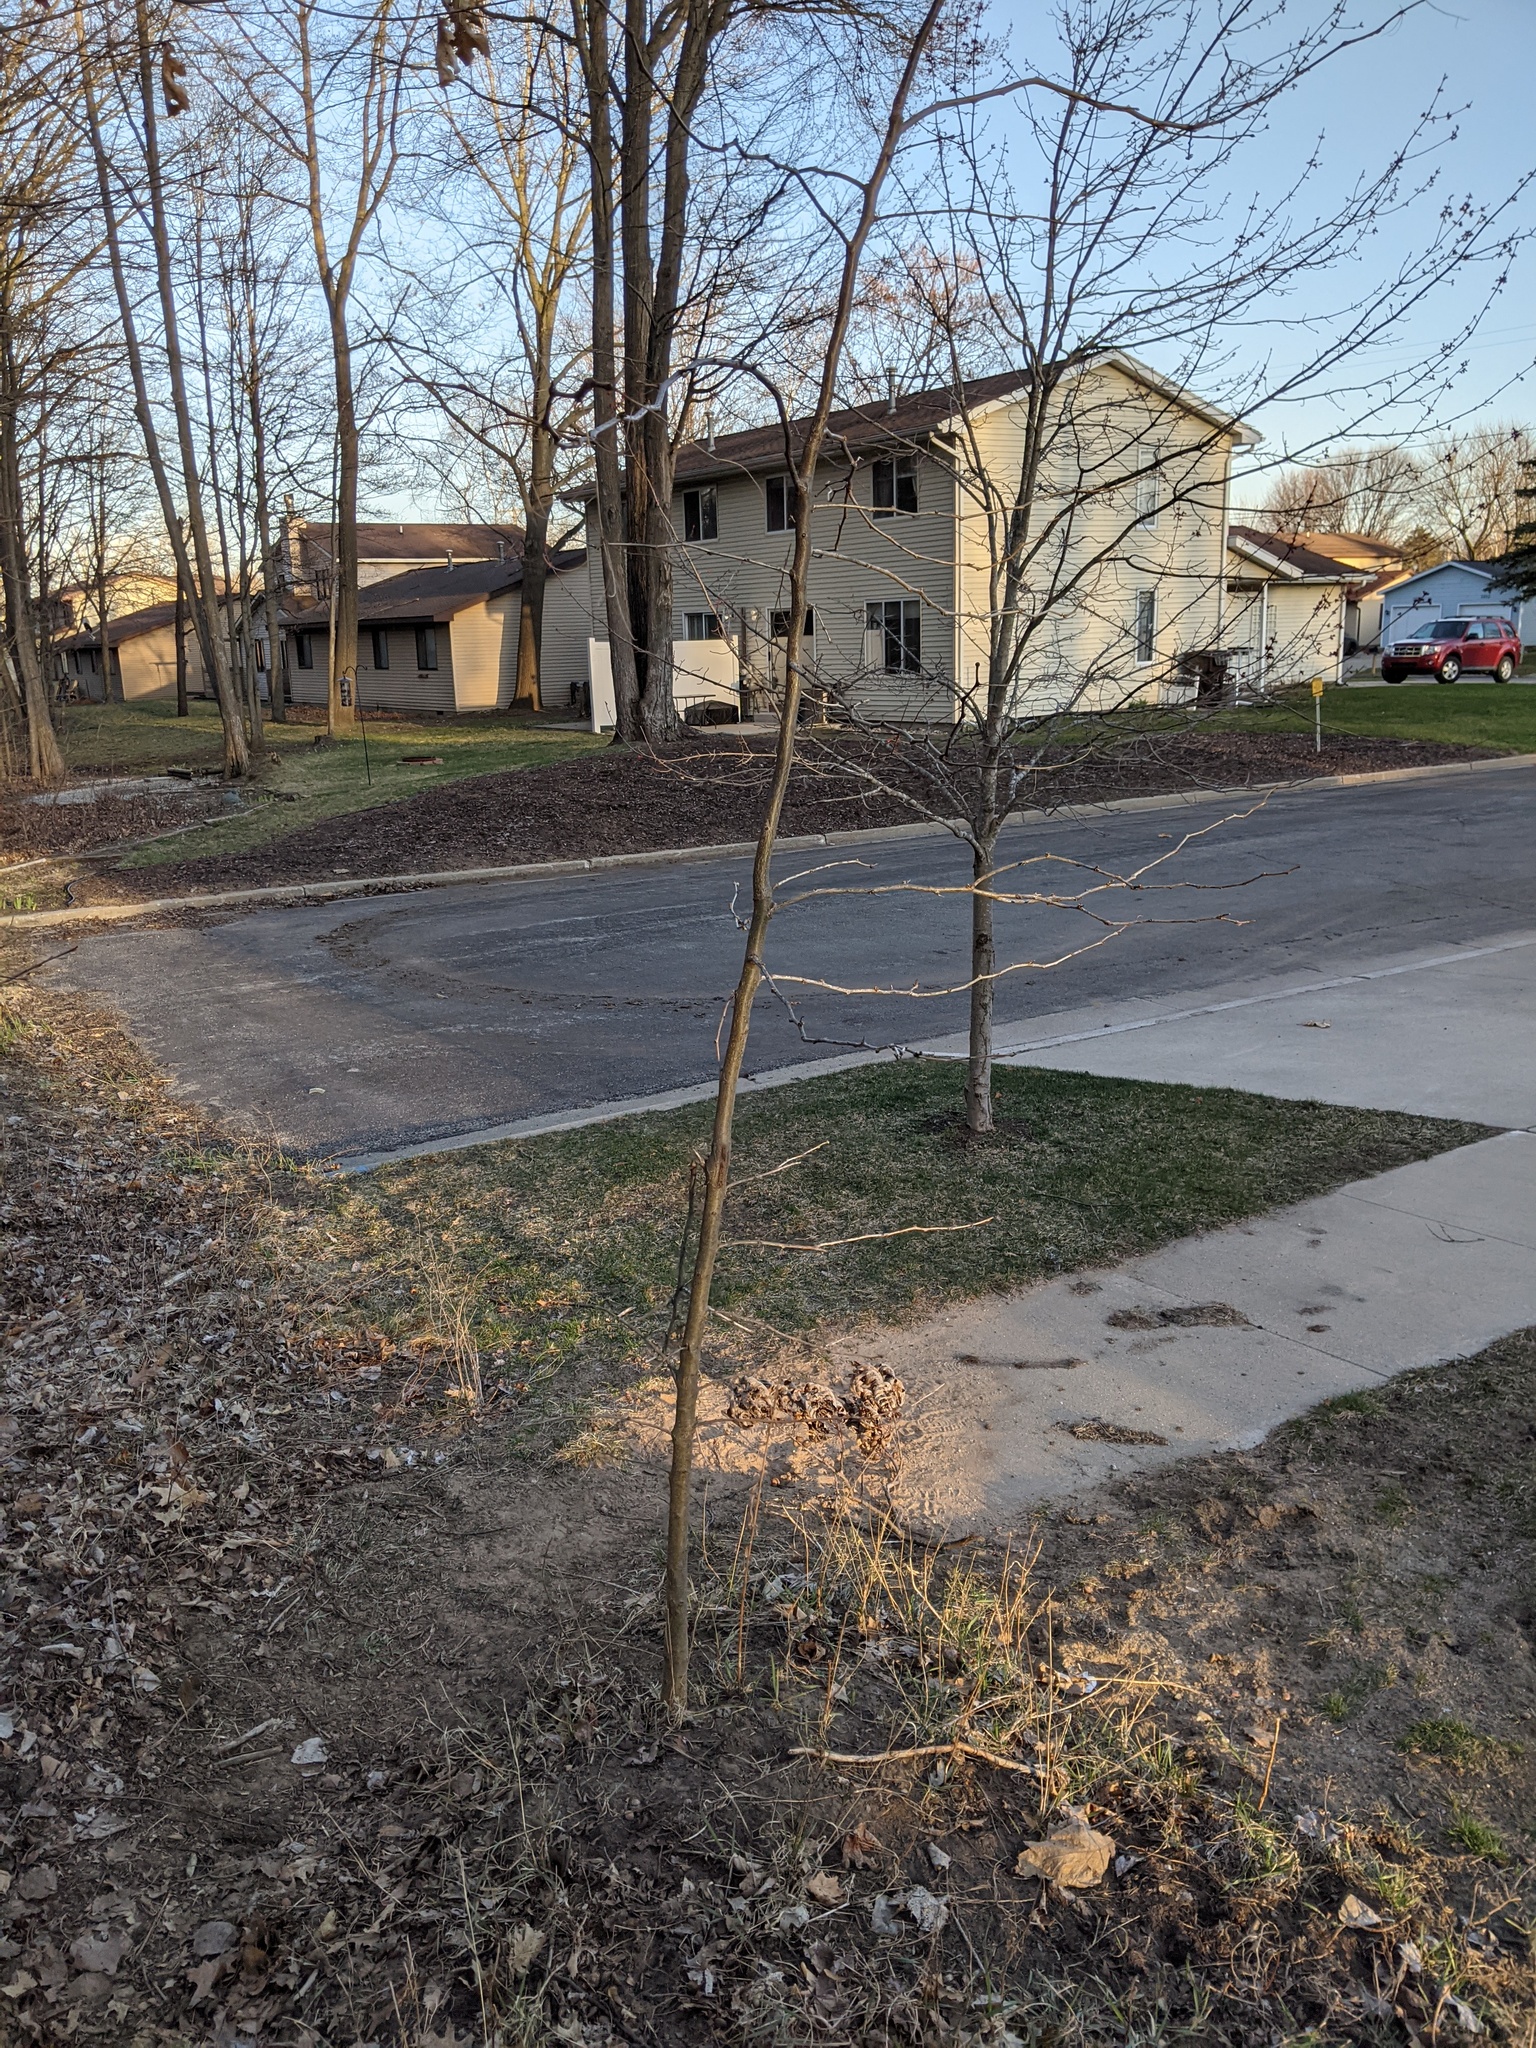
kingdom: Plantae
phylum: Tracheophyta
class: Magnoliopsida
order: Fabales
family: Fabaceae
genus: Gleditsia
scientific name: Gleditsia triacanthos
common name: Common honeylocust
